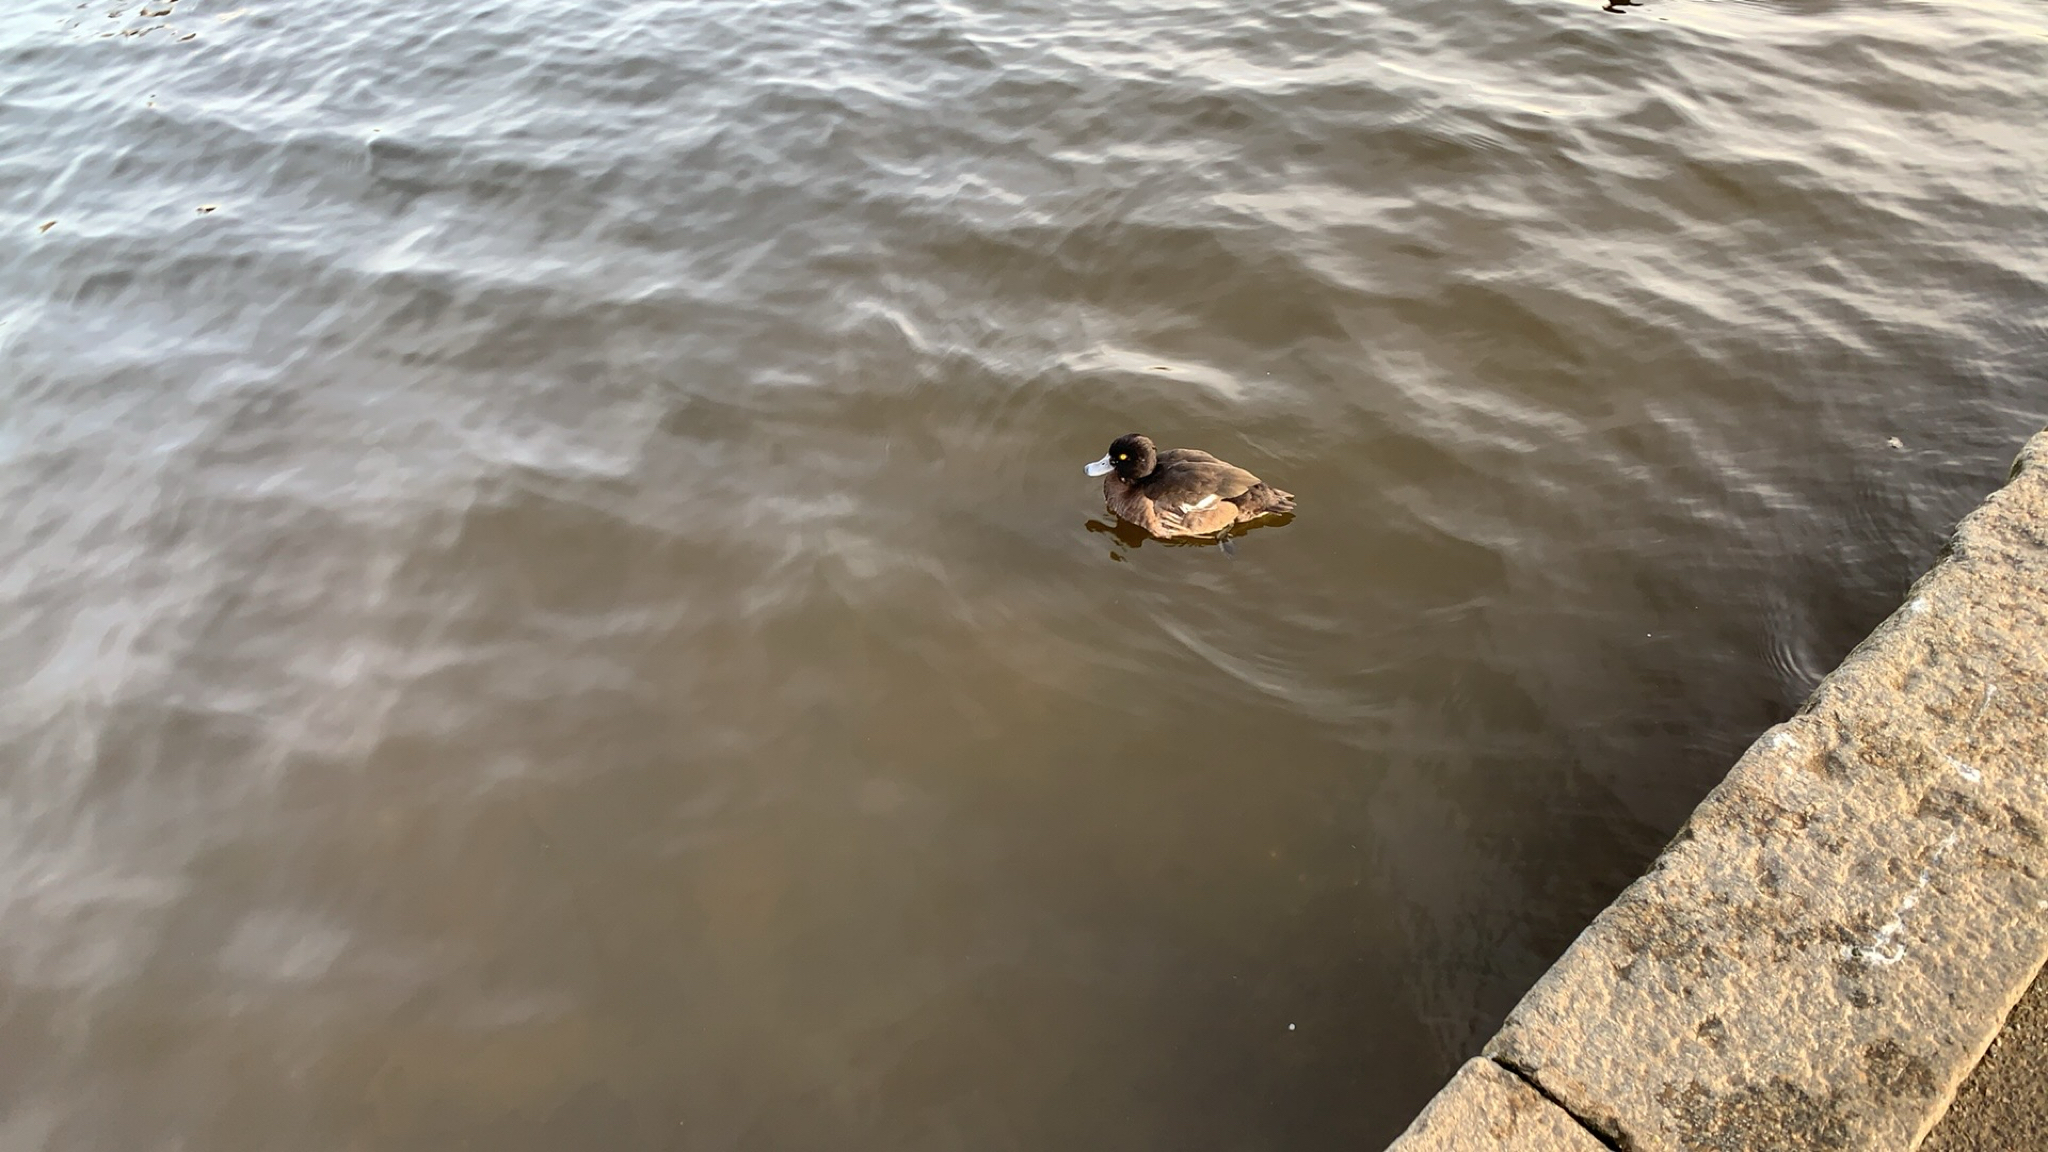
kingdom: Animalia
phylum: Chordata
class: Aves
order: Anseriformes
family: Anatidae
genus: Aythya
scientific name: Aythya fuligula
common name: Tufted duck
